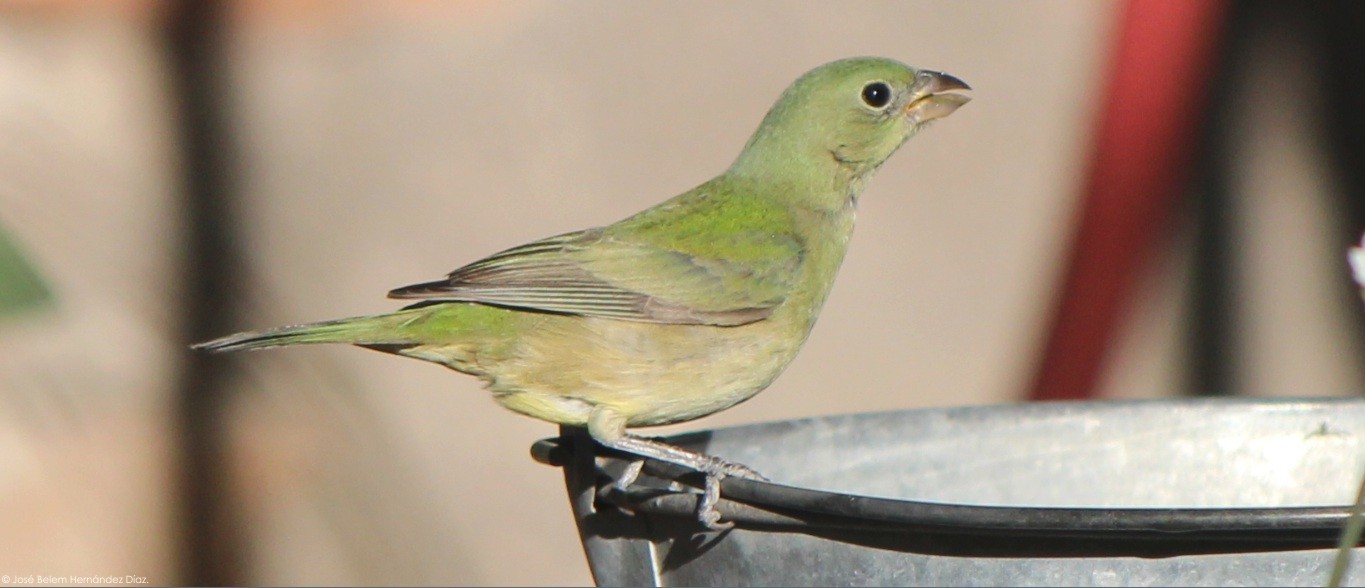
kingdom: Animalia
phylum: Chordata
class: Aves
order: Passeriformes
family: Cardinalidae
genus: Passerina
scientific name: Passerina ciris
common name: Painted bunting
